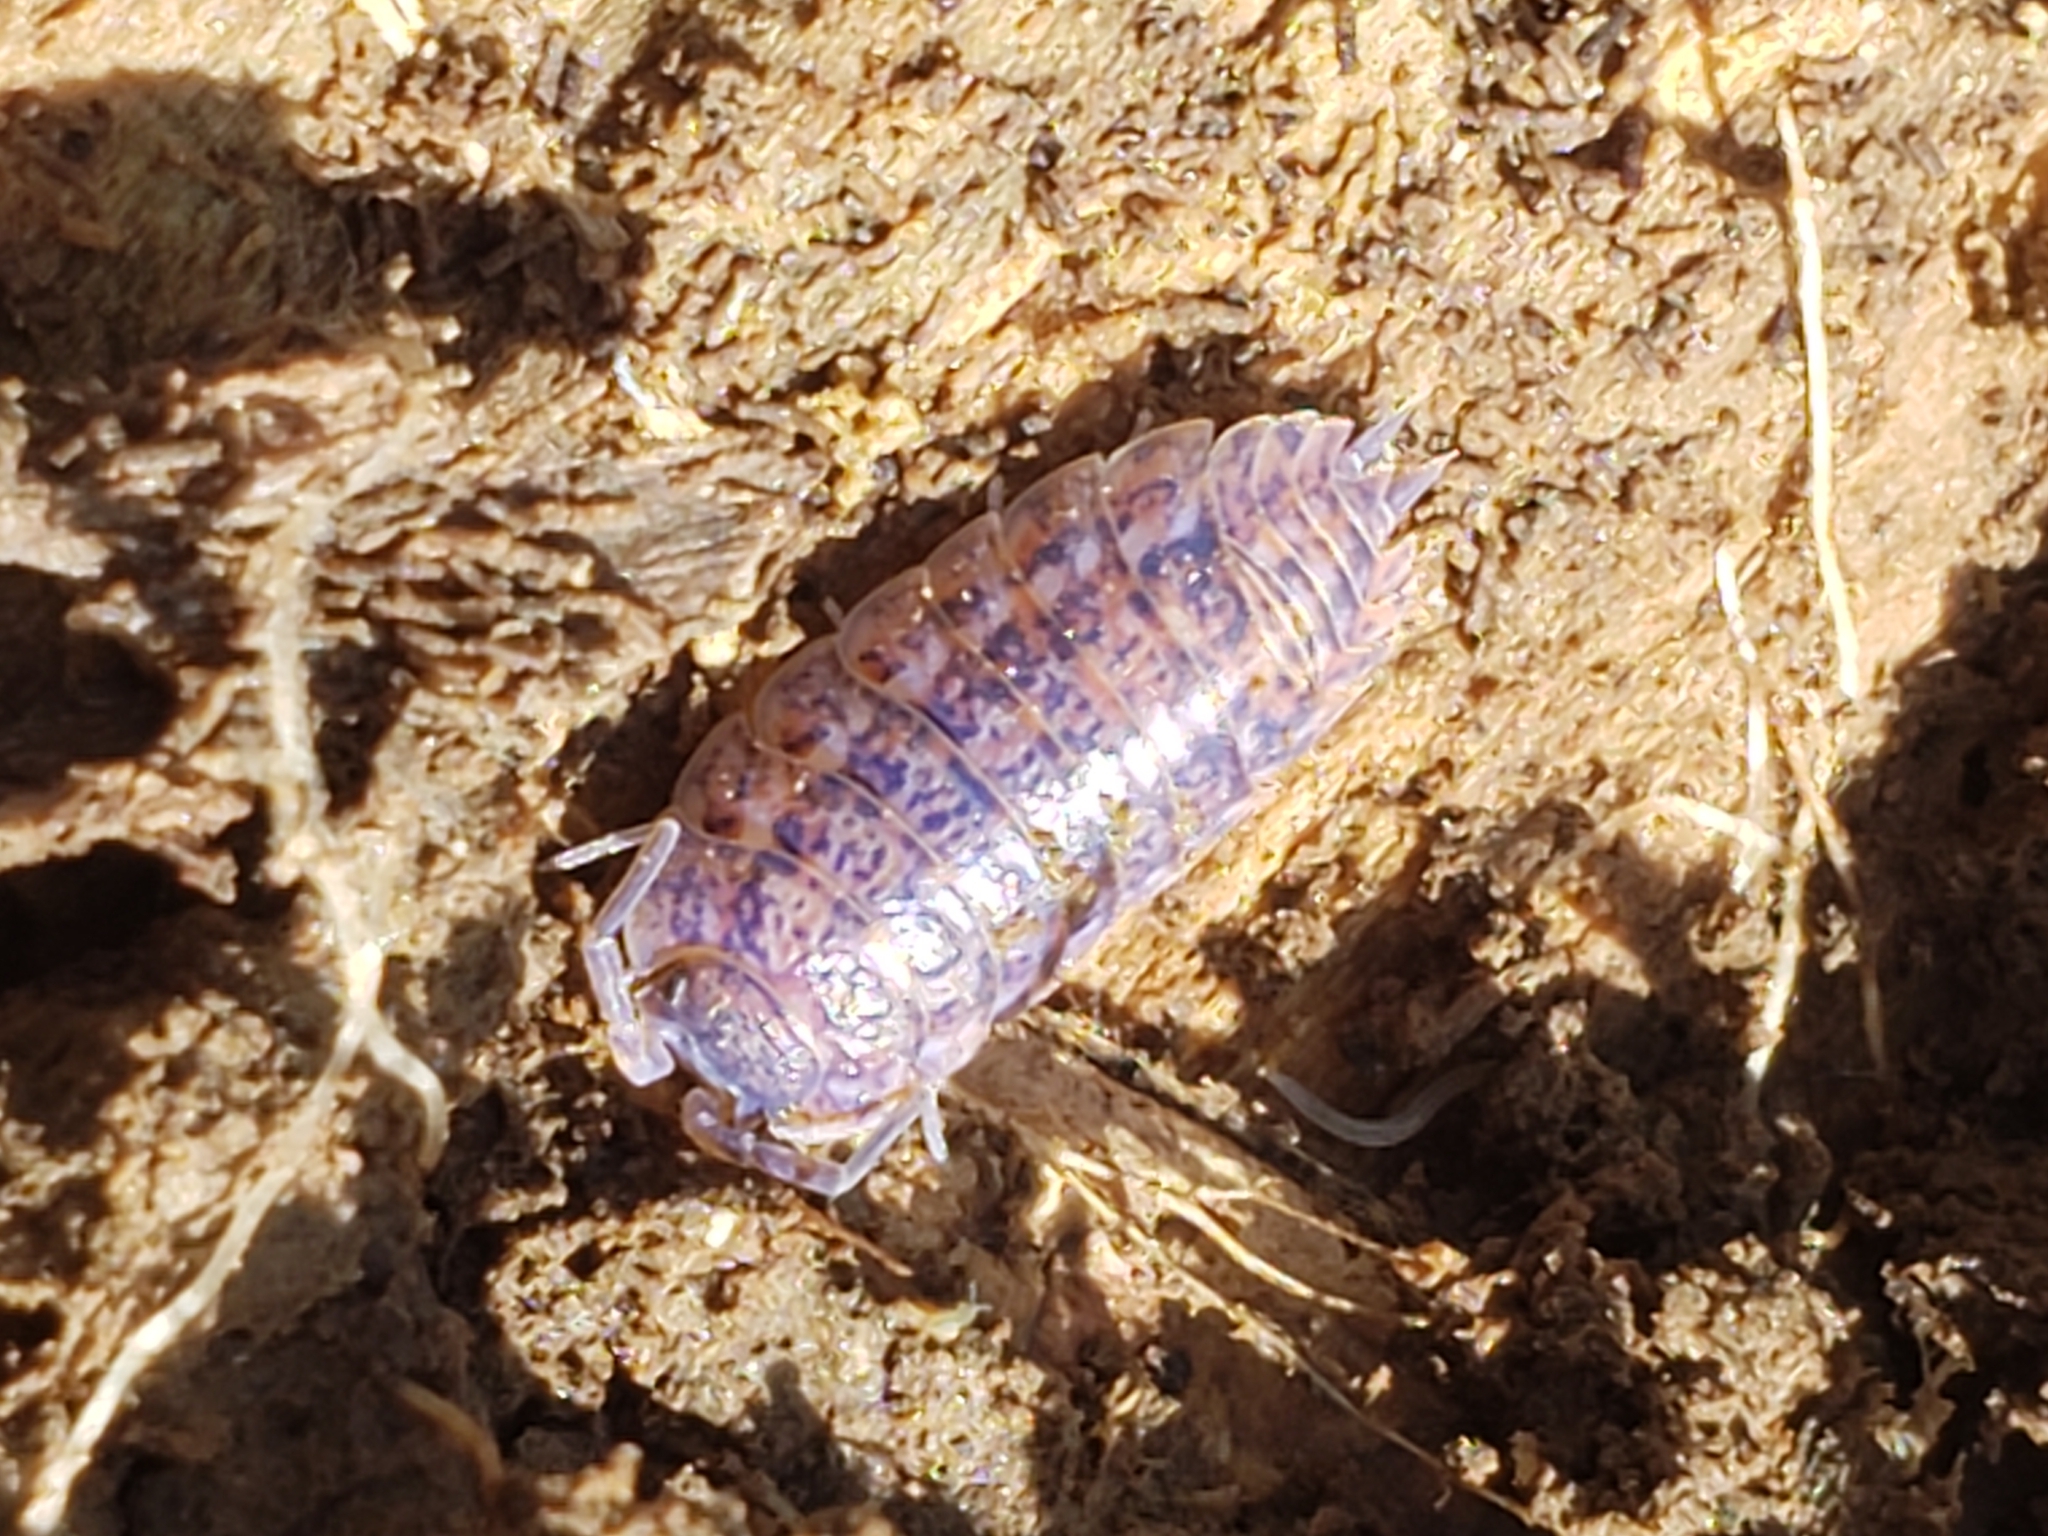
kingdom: Animalia
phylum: Arthropoda
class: Malacostraca
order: Isopoda
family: Trachelipodidae
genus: Trachelipus
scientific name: Trachelipus rathkii
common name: Isopod
